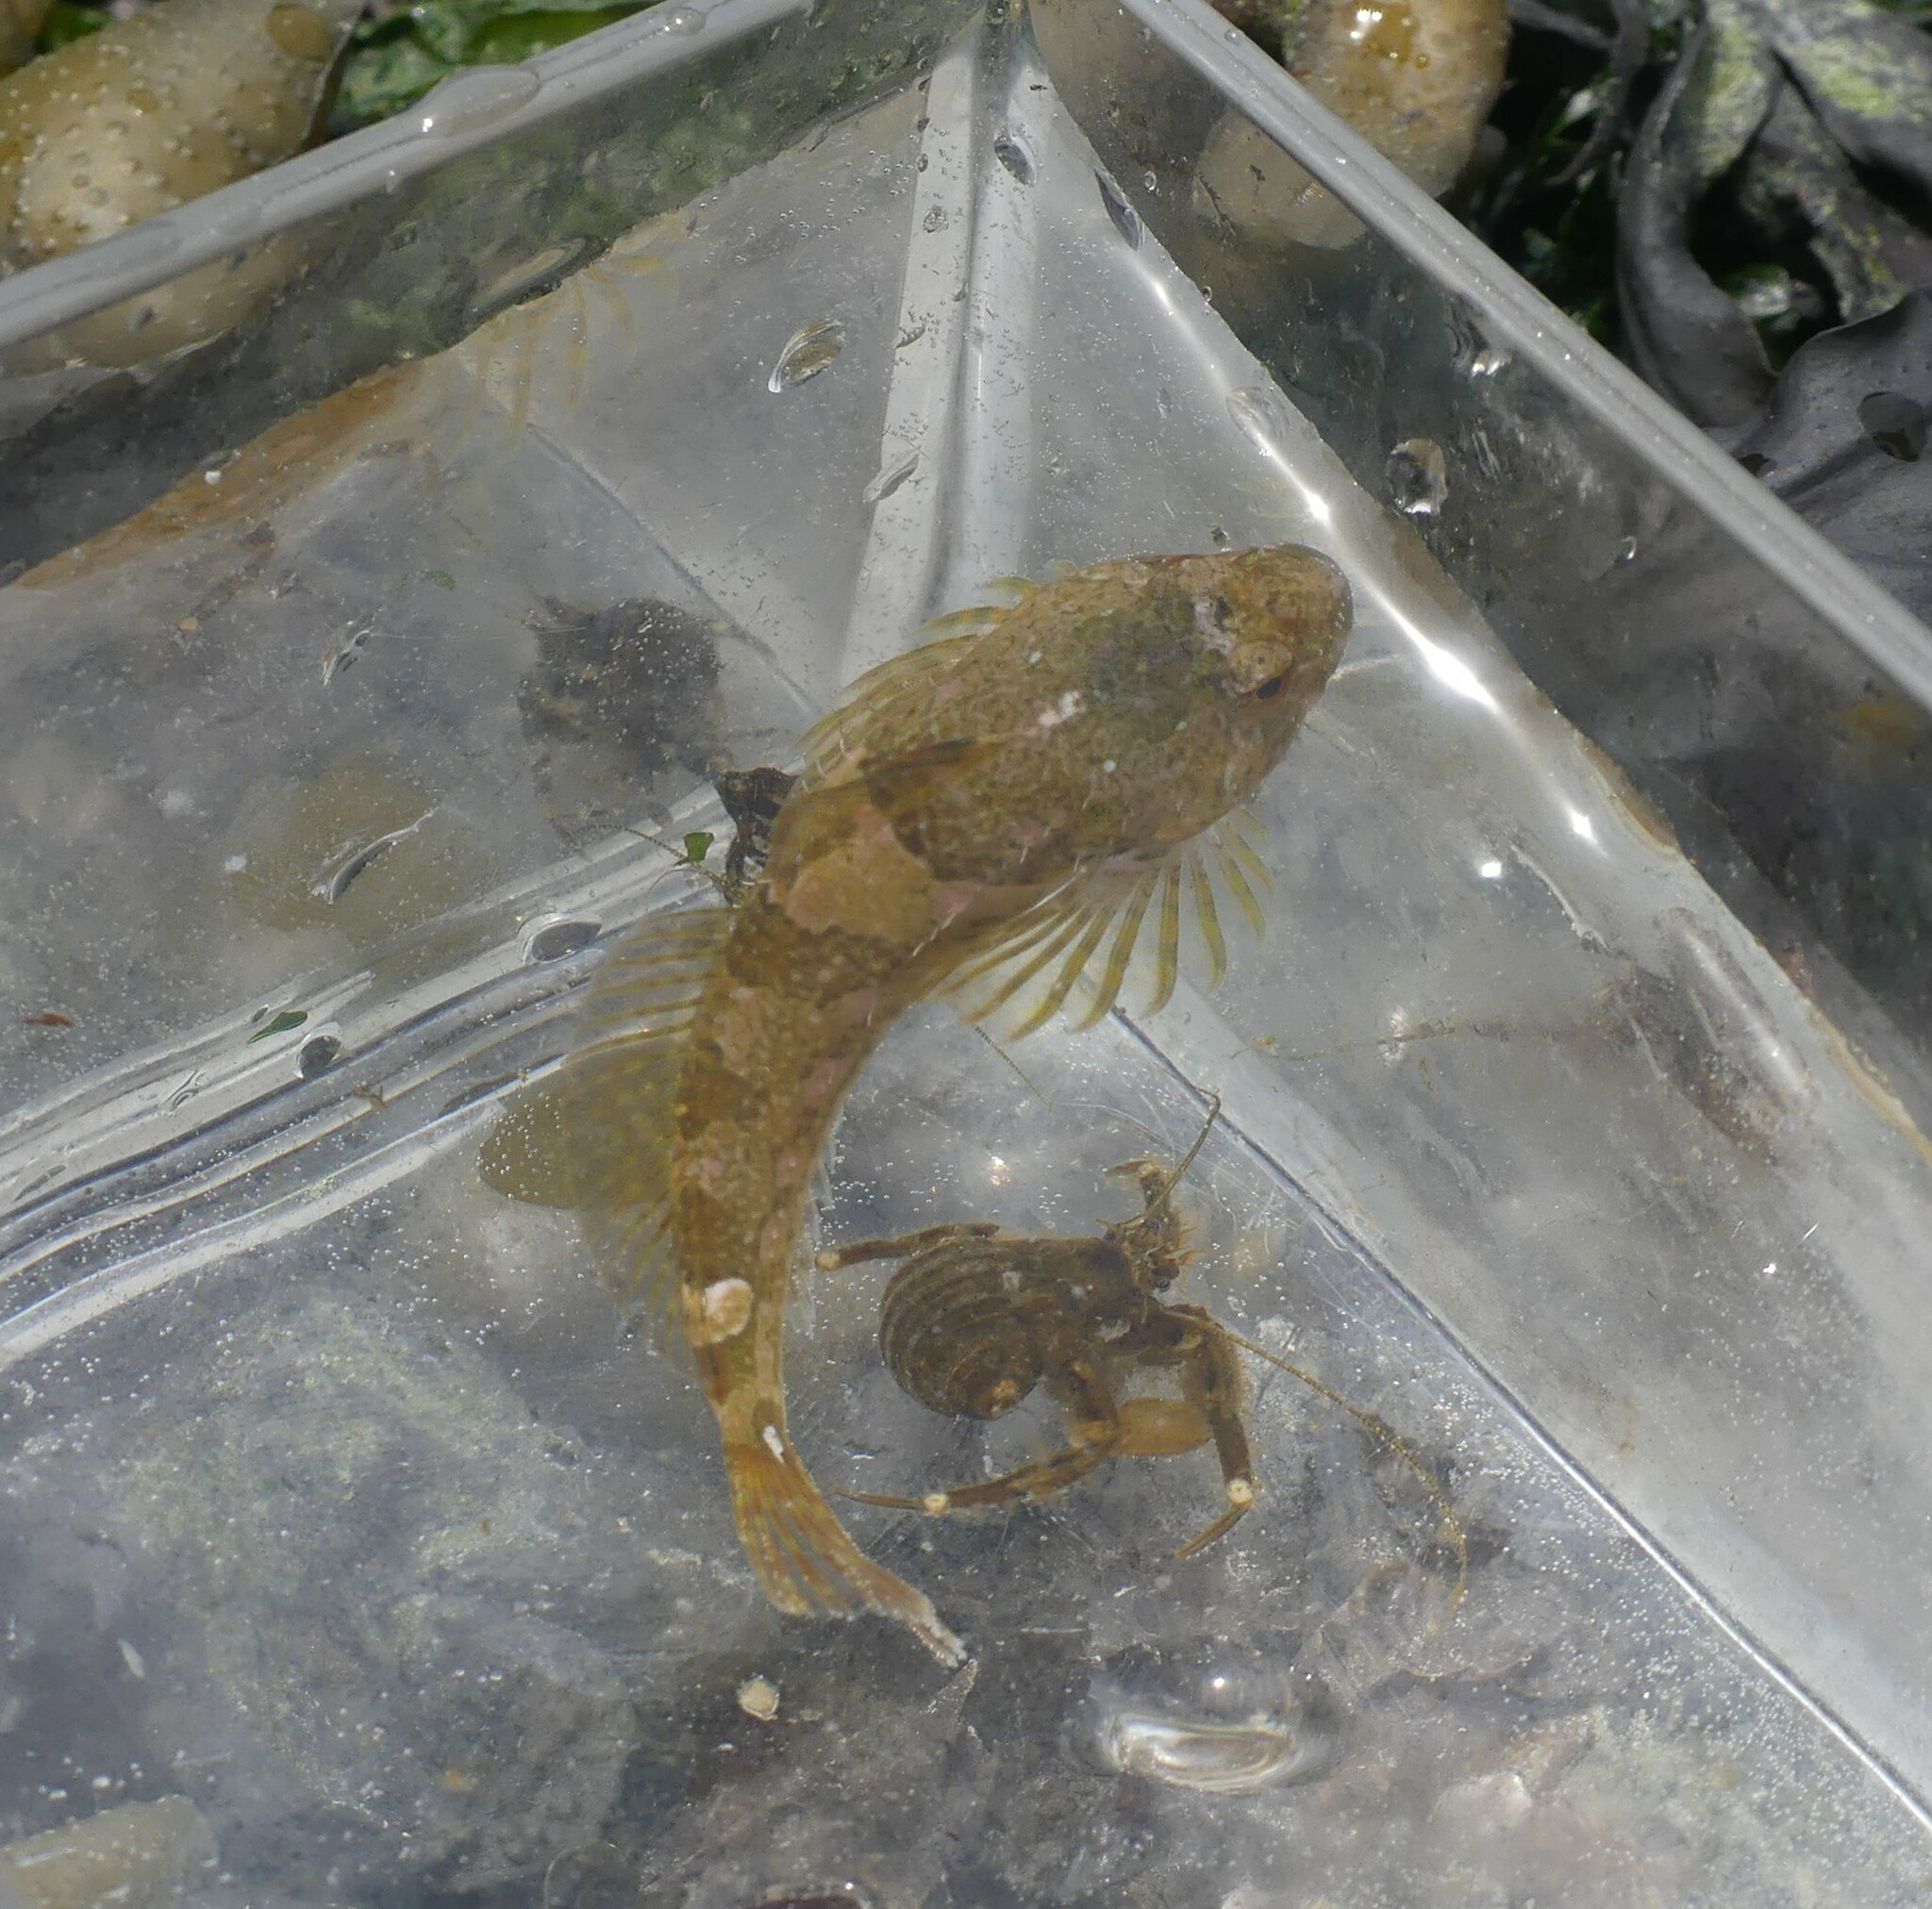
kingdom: Animalia
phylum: Chordata
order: Scorpaeniformes
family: Cottidae
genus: Oligocottus
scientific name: Oligocottus maculosus
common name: Tidepool sculpin
